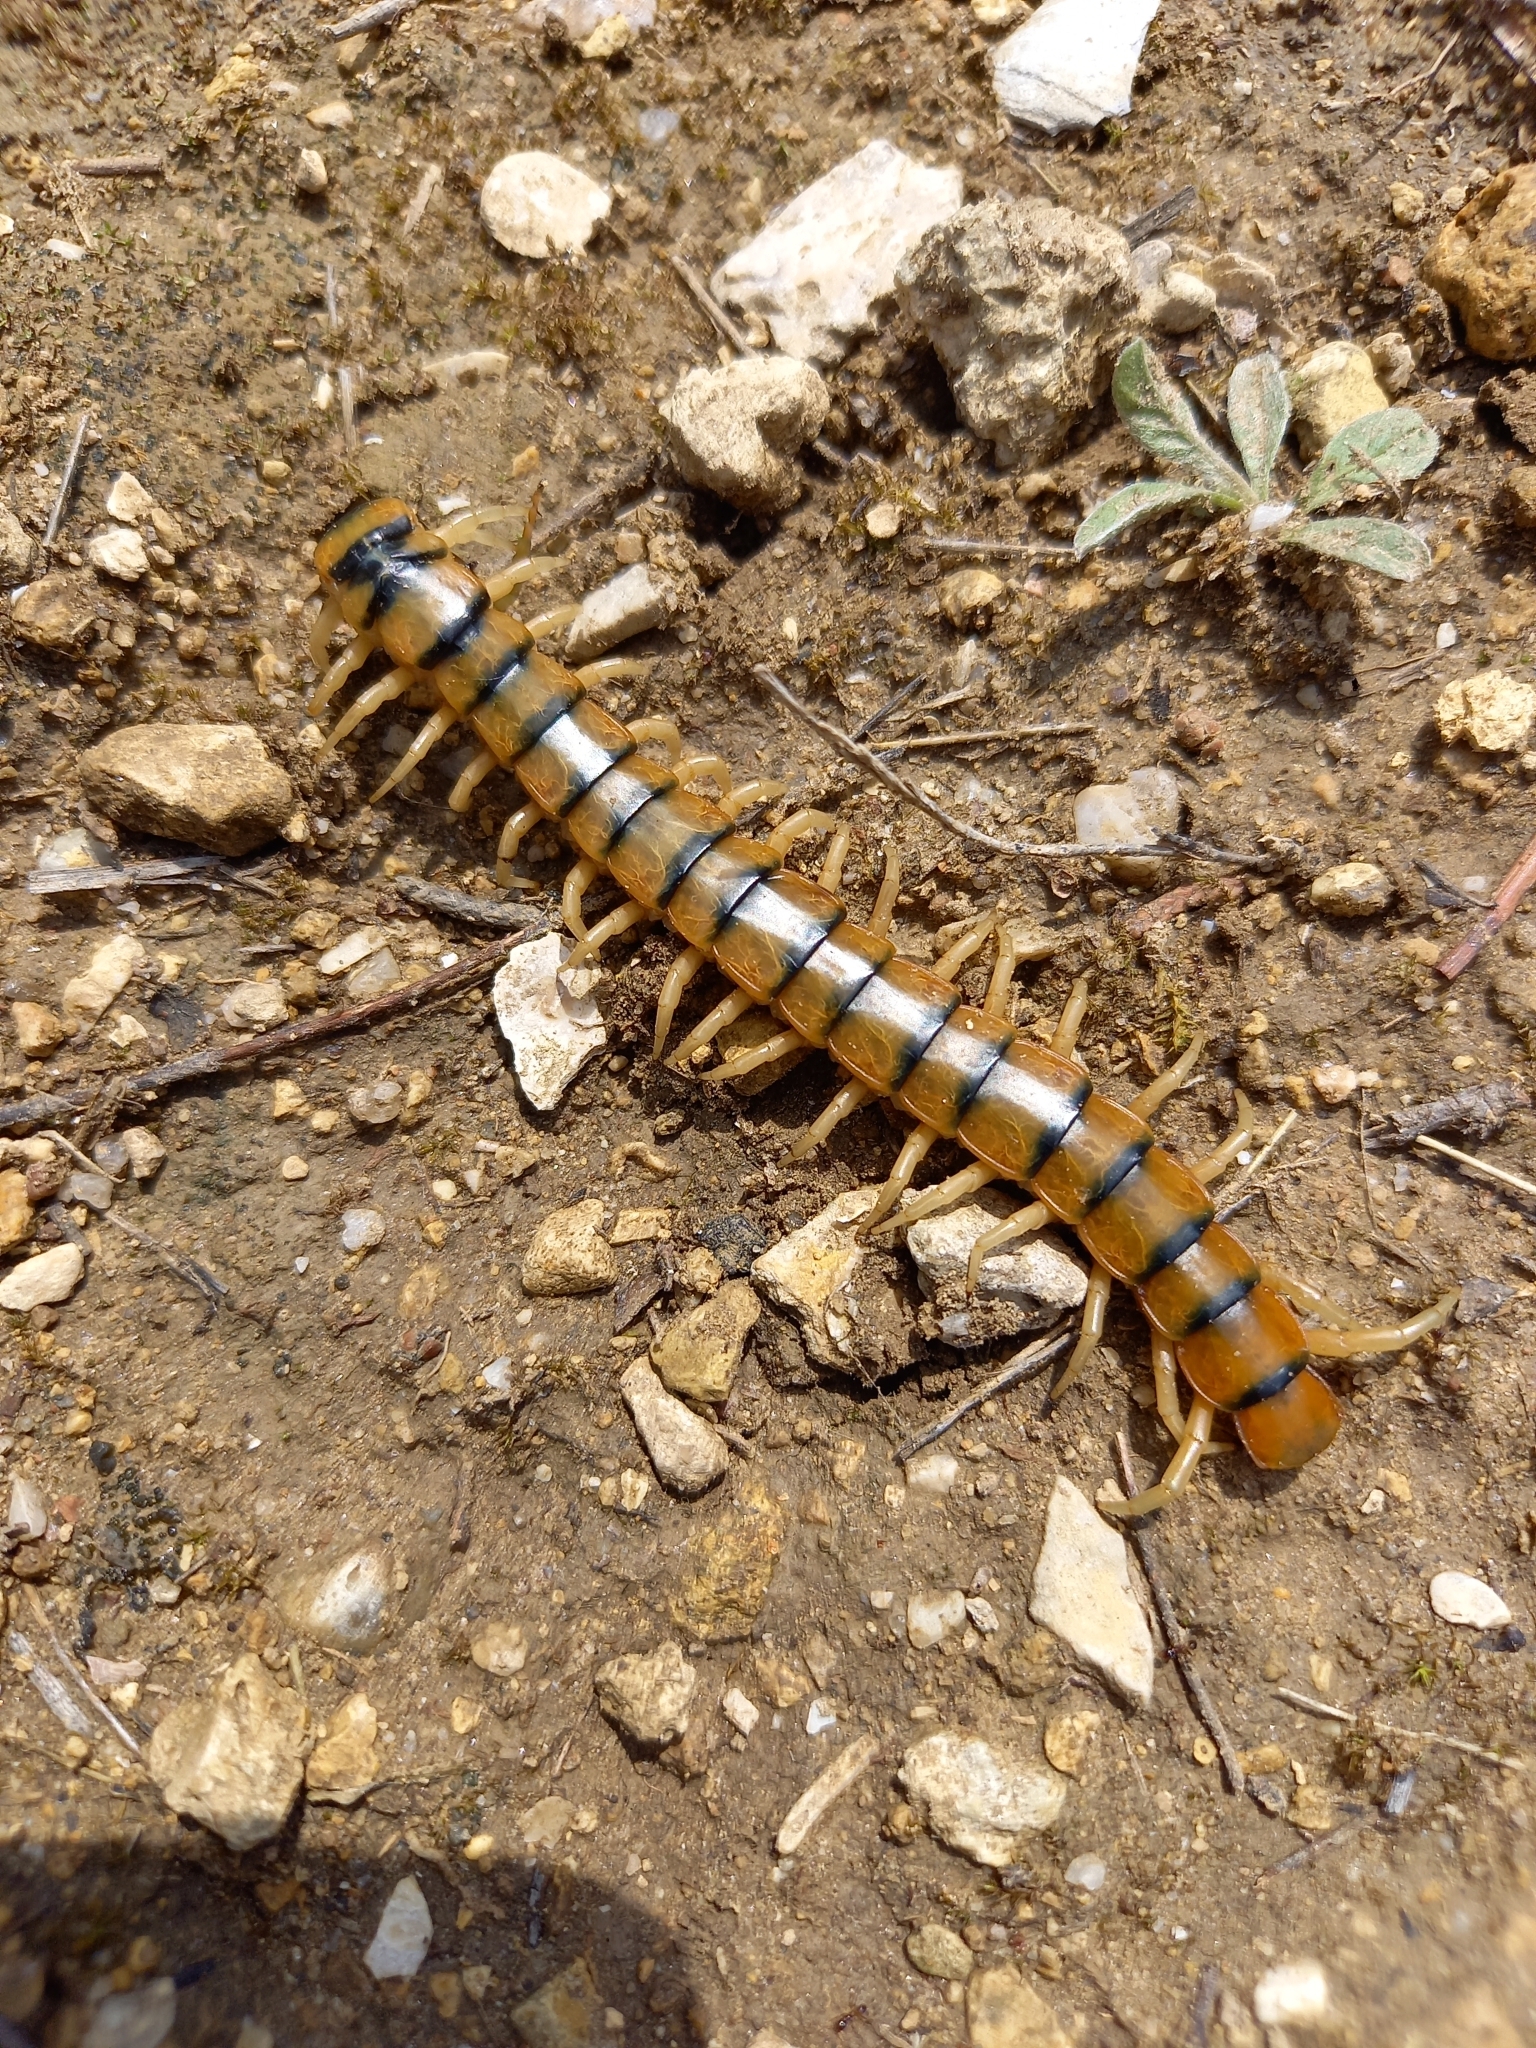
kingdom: Animalia
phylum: Arthropoda
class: Chilopoda
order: Scolopendromorpha
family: Scolopendridae
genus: Scolopendra
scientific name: Scolopendra cingulata
